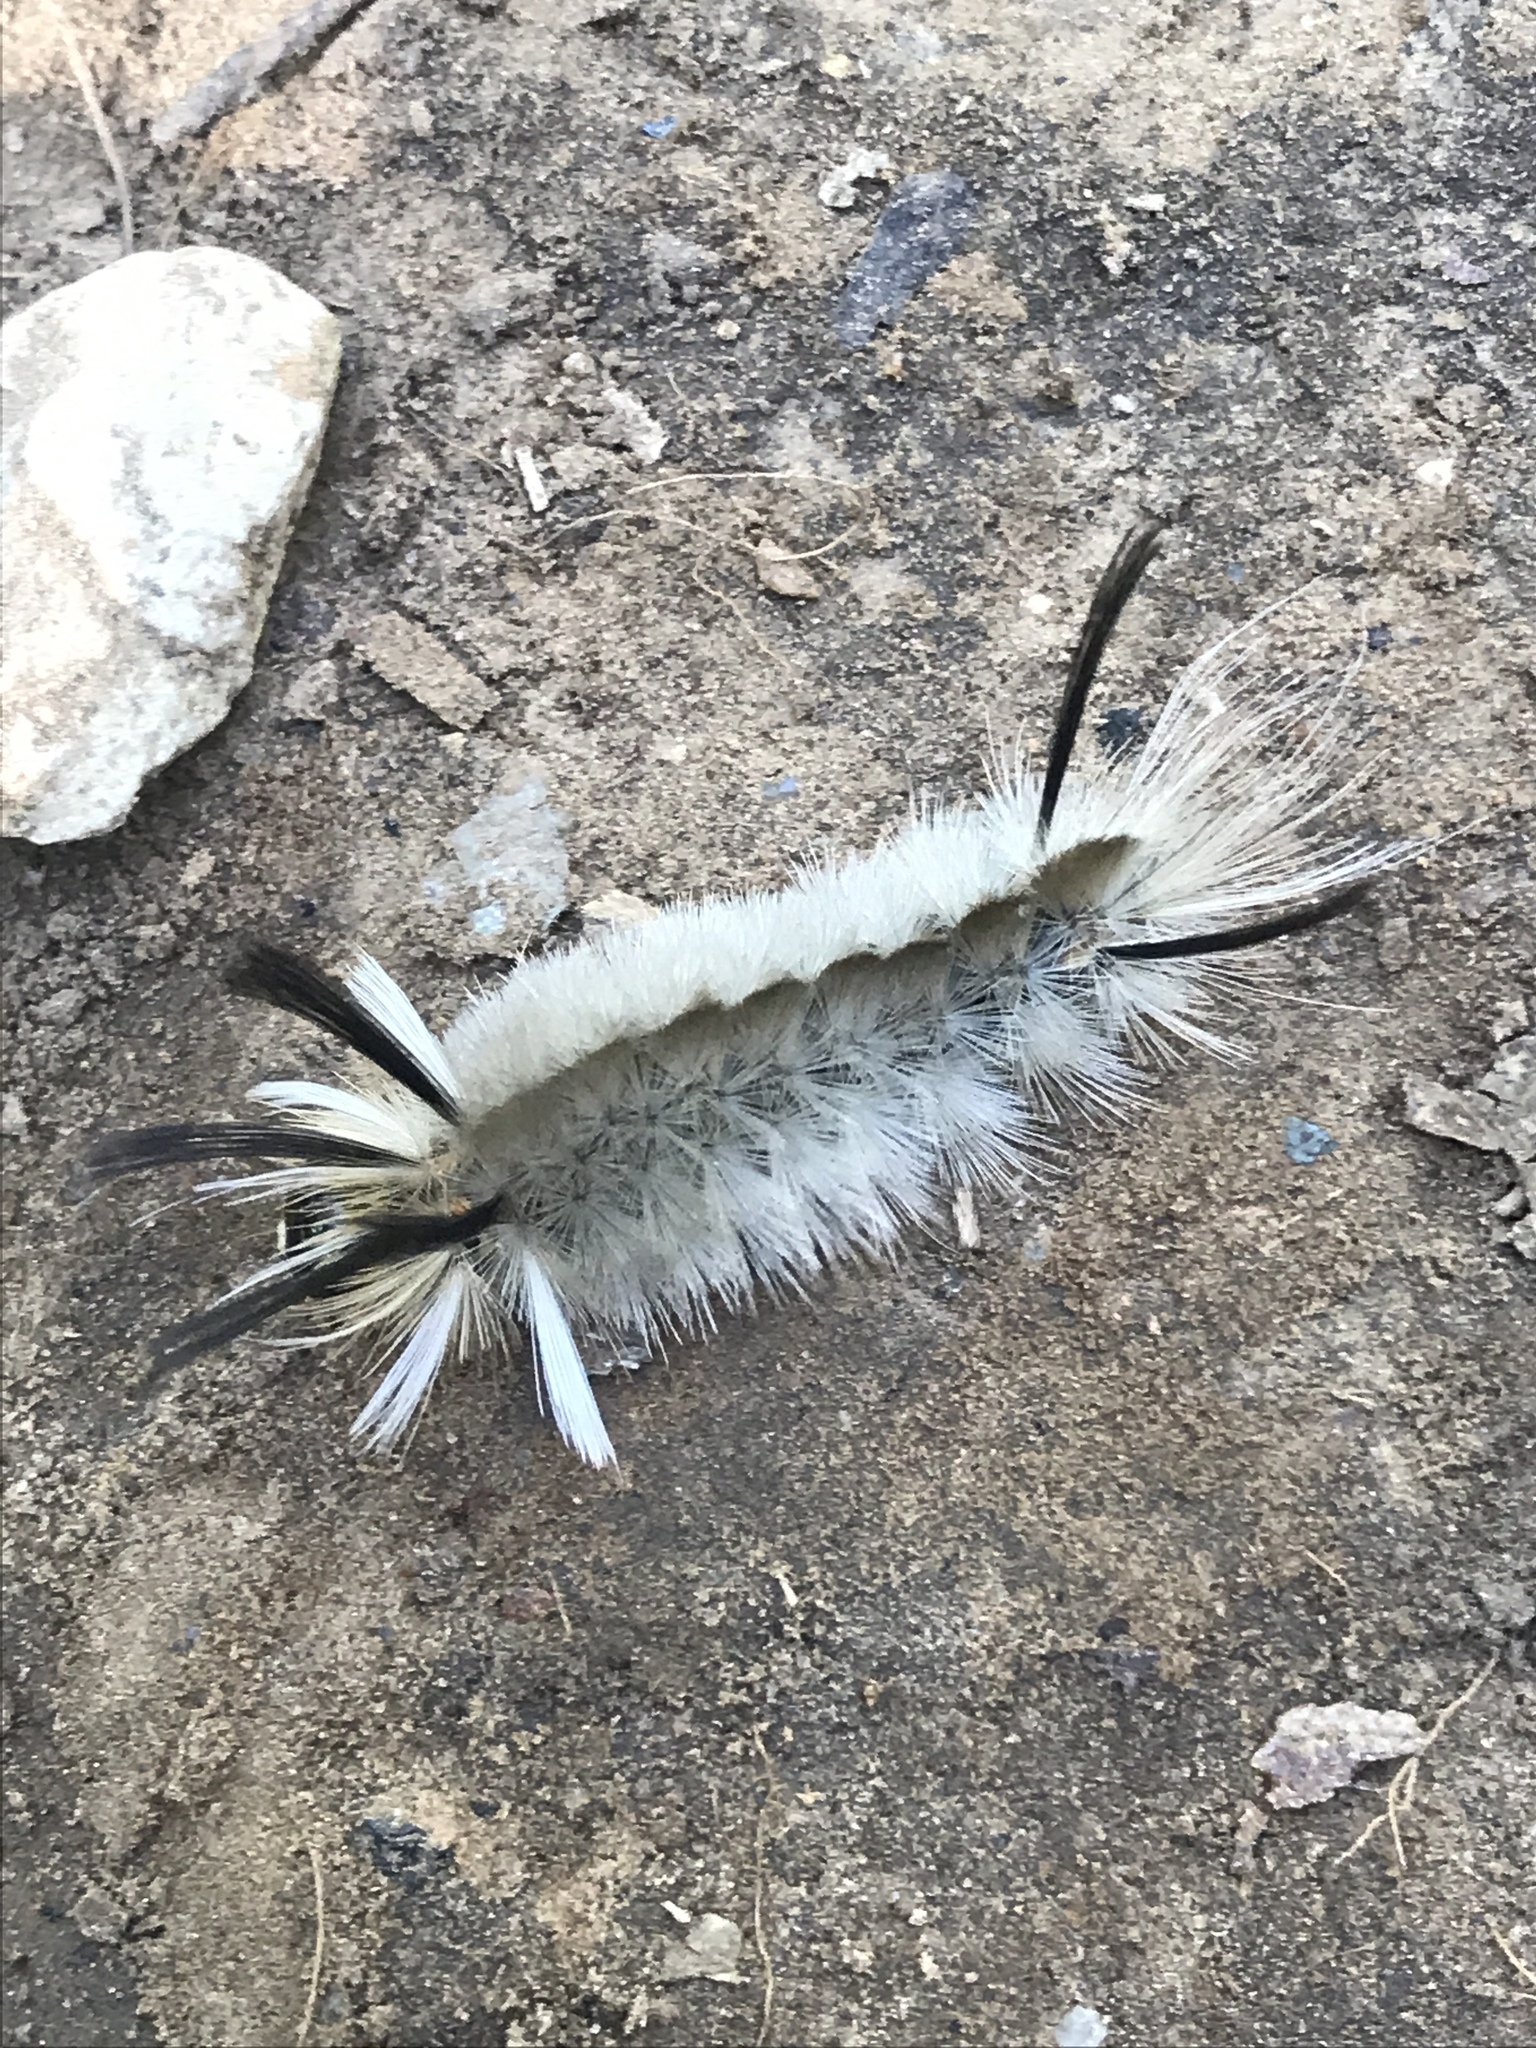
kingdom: Animalia
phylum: Arthropoda
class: Insecta
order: Lepidoptera
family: Erebidae
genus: Halysidota
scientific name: Halysidota tessellaris
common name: Banded tussock moth
